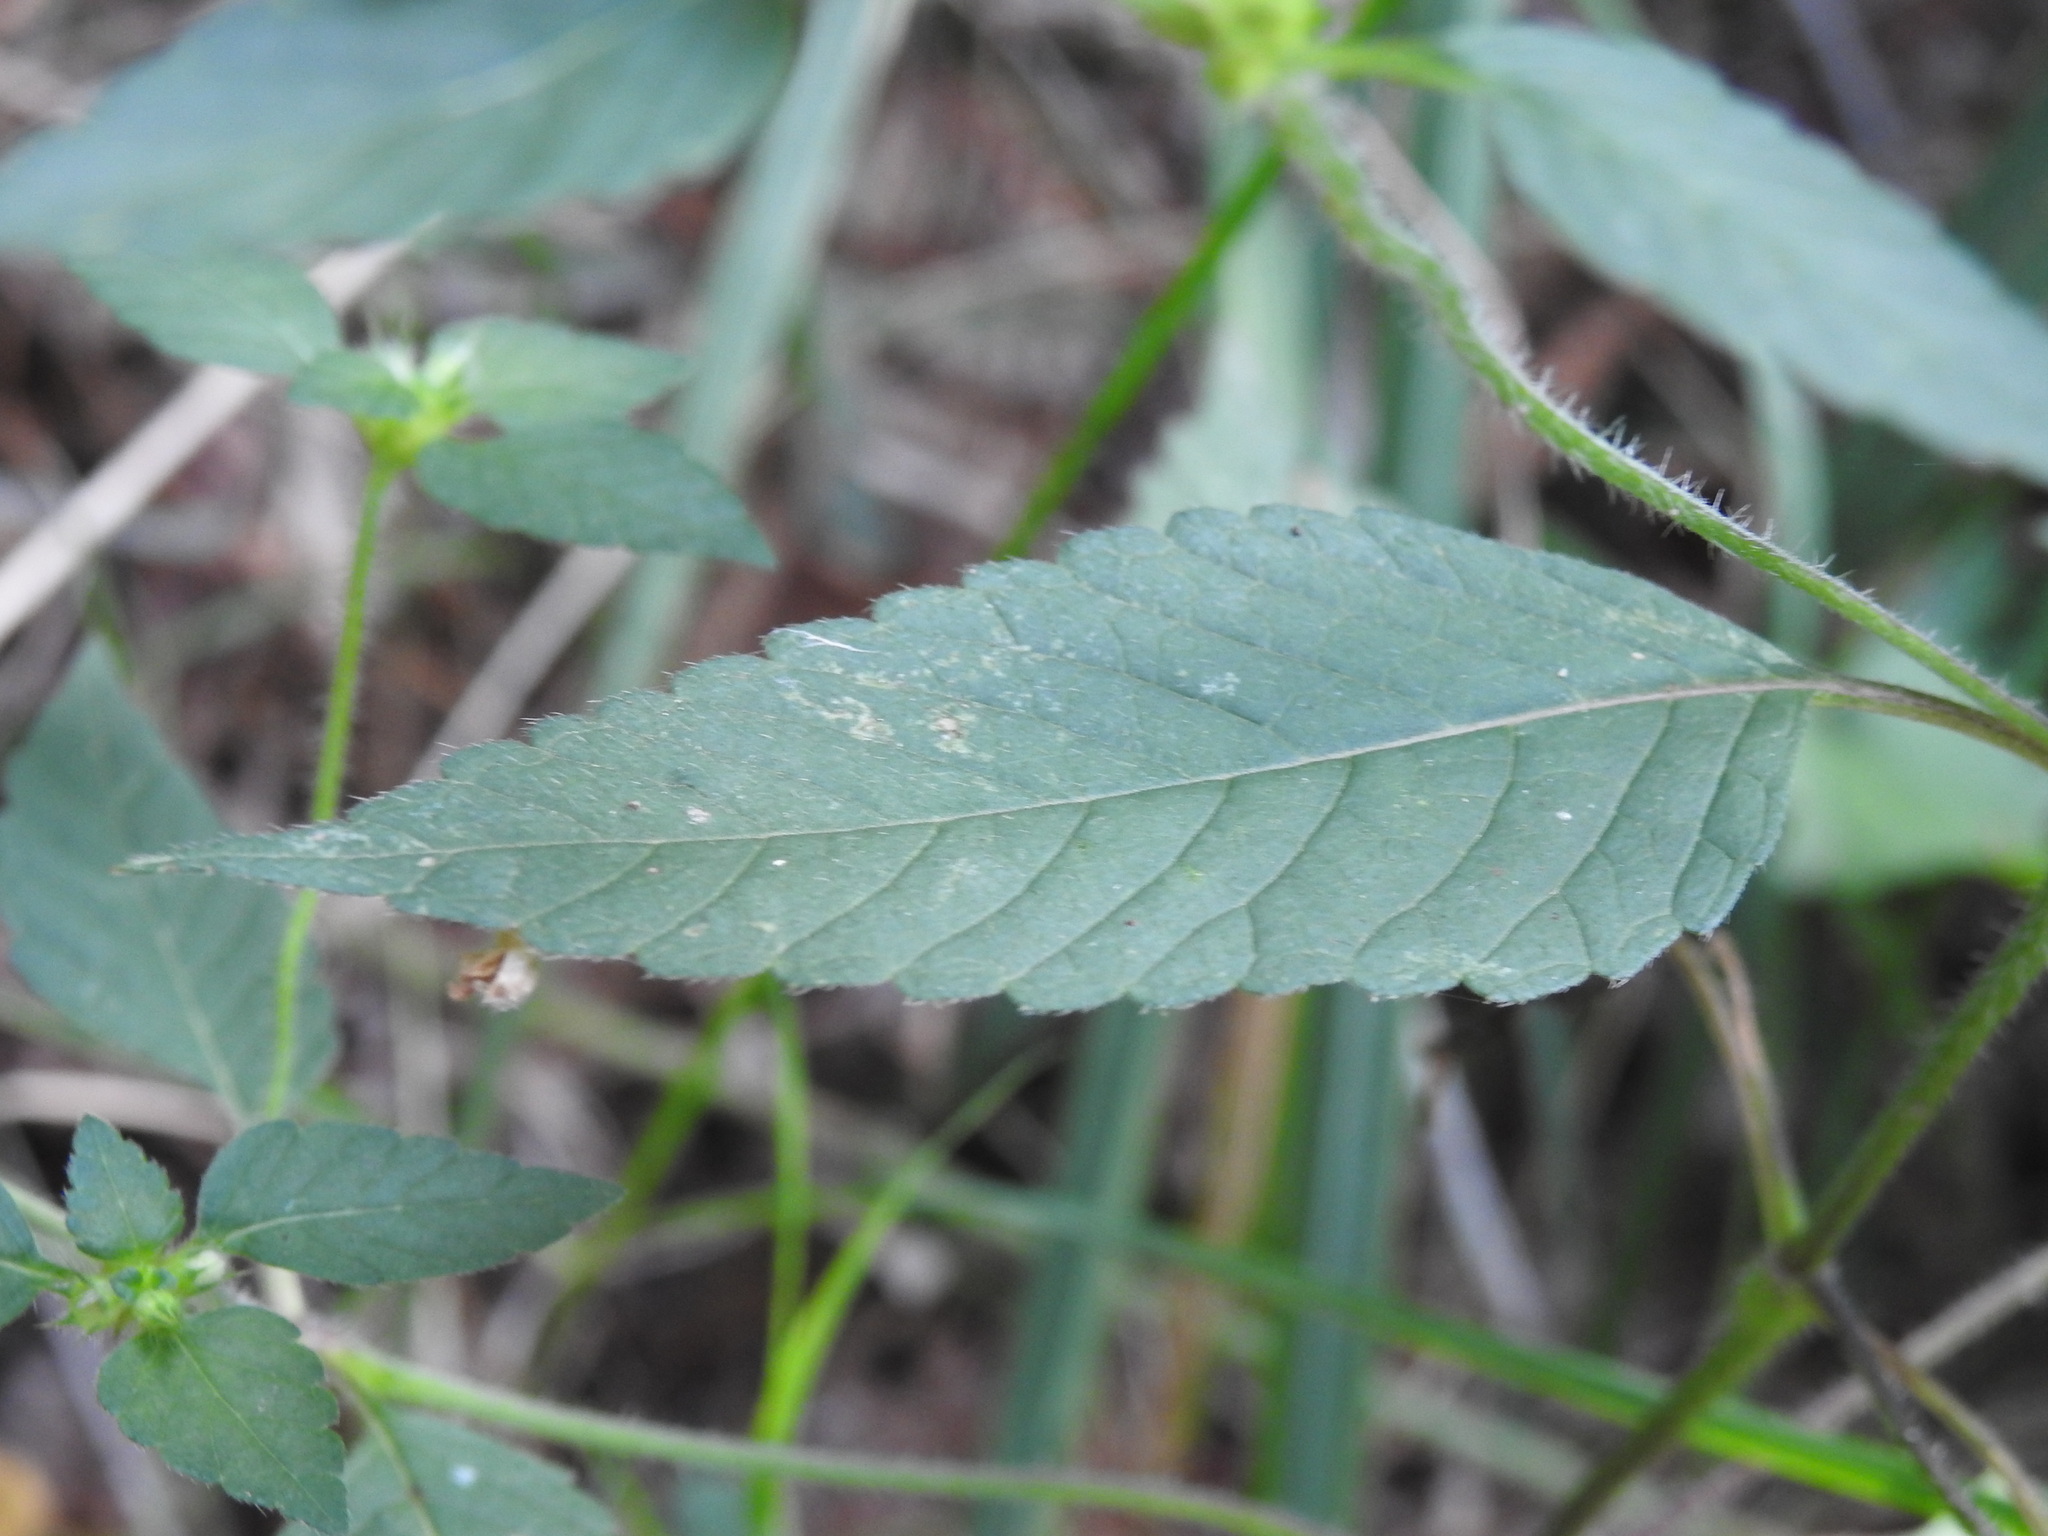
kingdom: Plantae
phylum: Tracheophyta
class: Magnoliopsida
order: Lamiales
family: Lamiaceae
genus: Galeopsis
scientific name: Galeopsis tetrahit
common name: Common hemp-nettle
